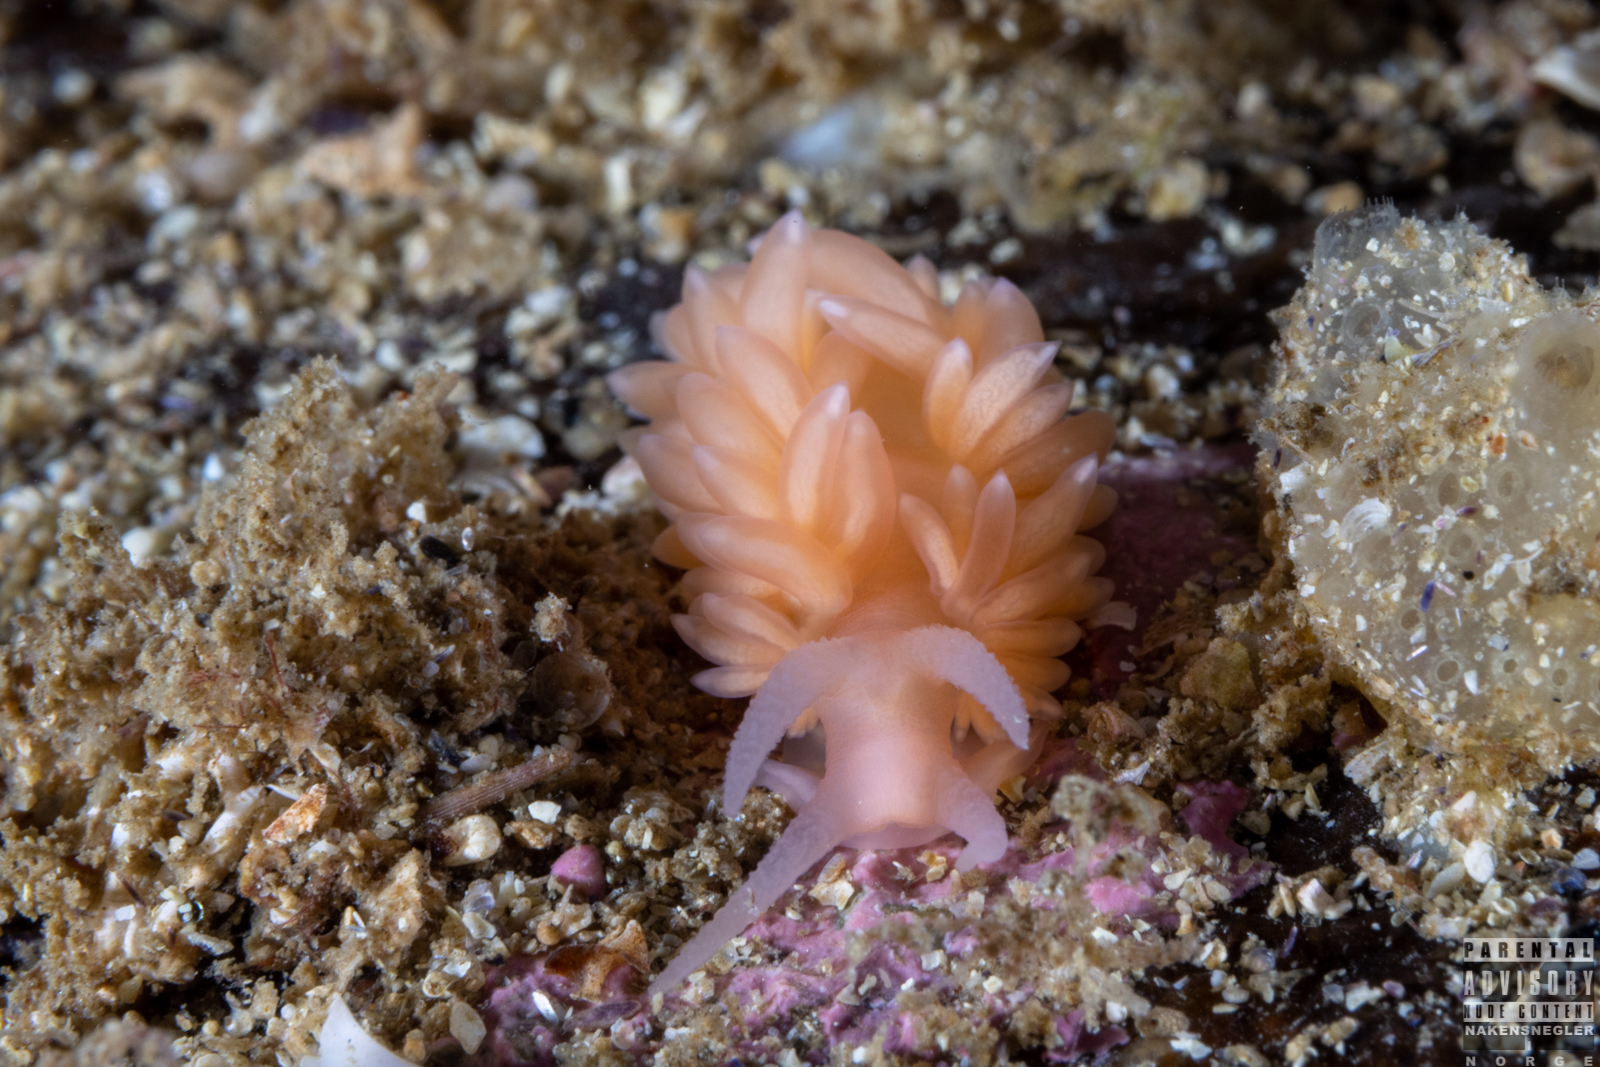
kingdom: Animalia
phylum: Mollusca
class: Gastropoda
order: Nudibranchia
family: Aeolidiidae
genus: Berghia
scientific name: Berghia norvegica
